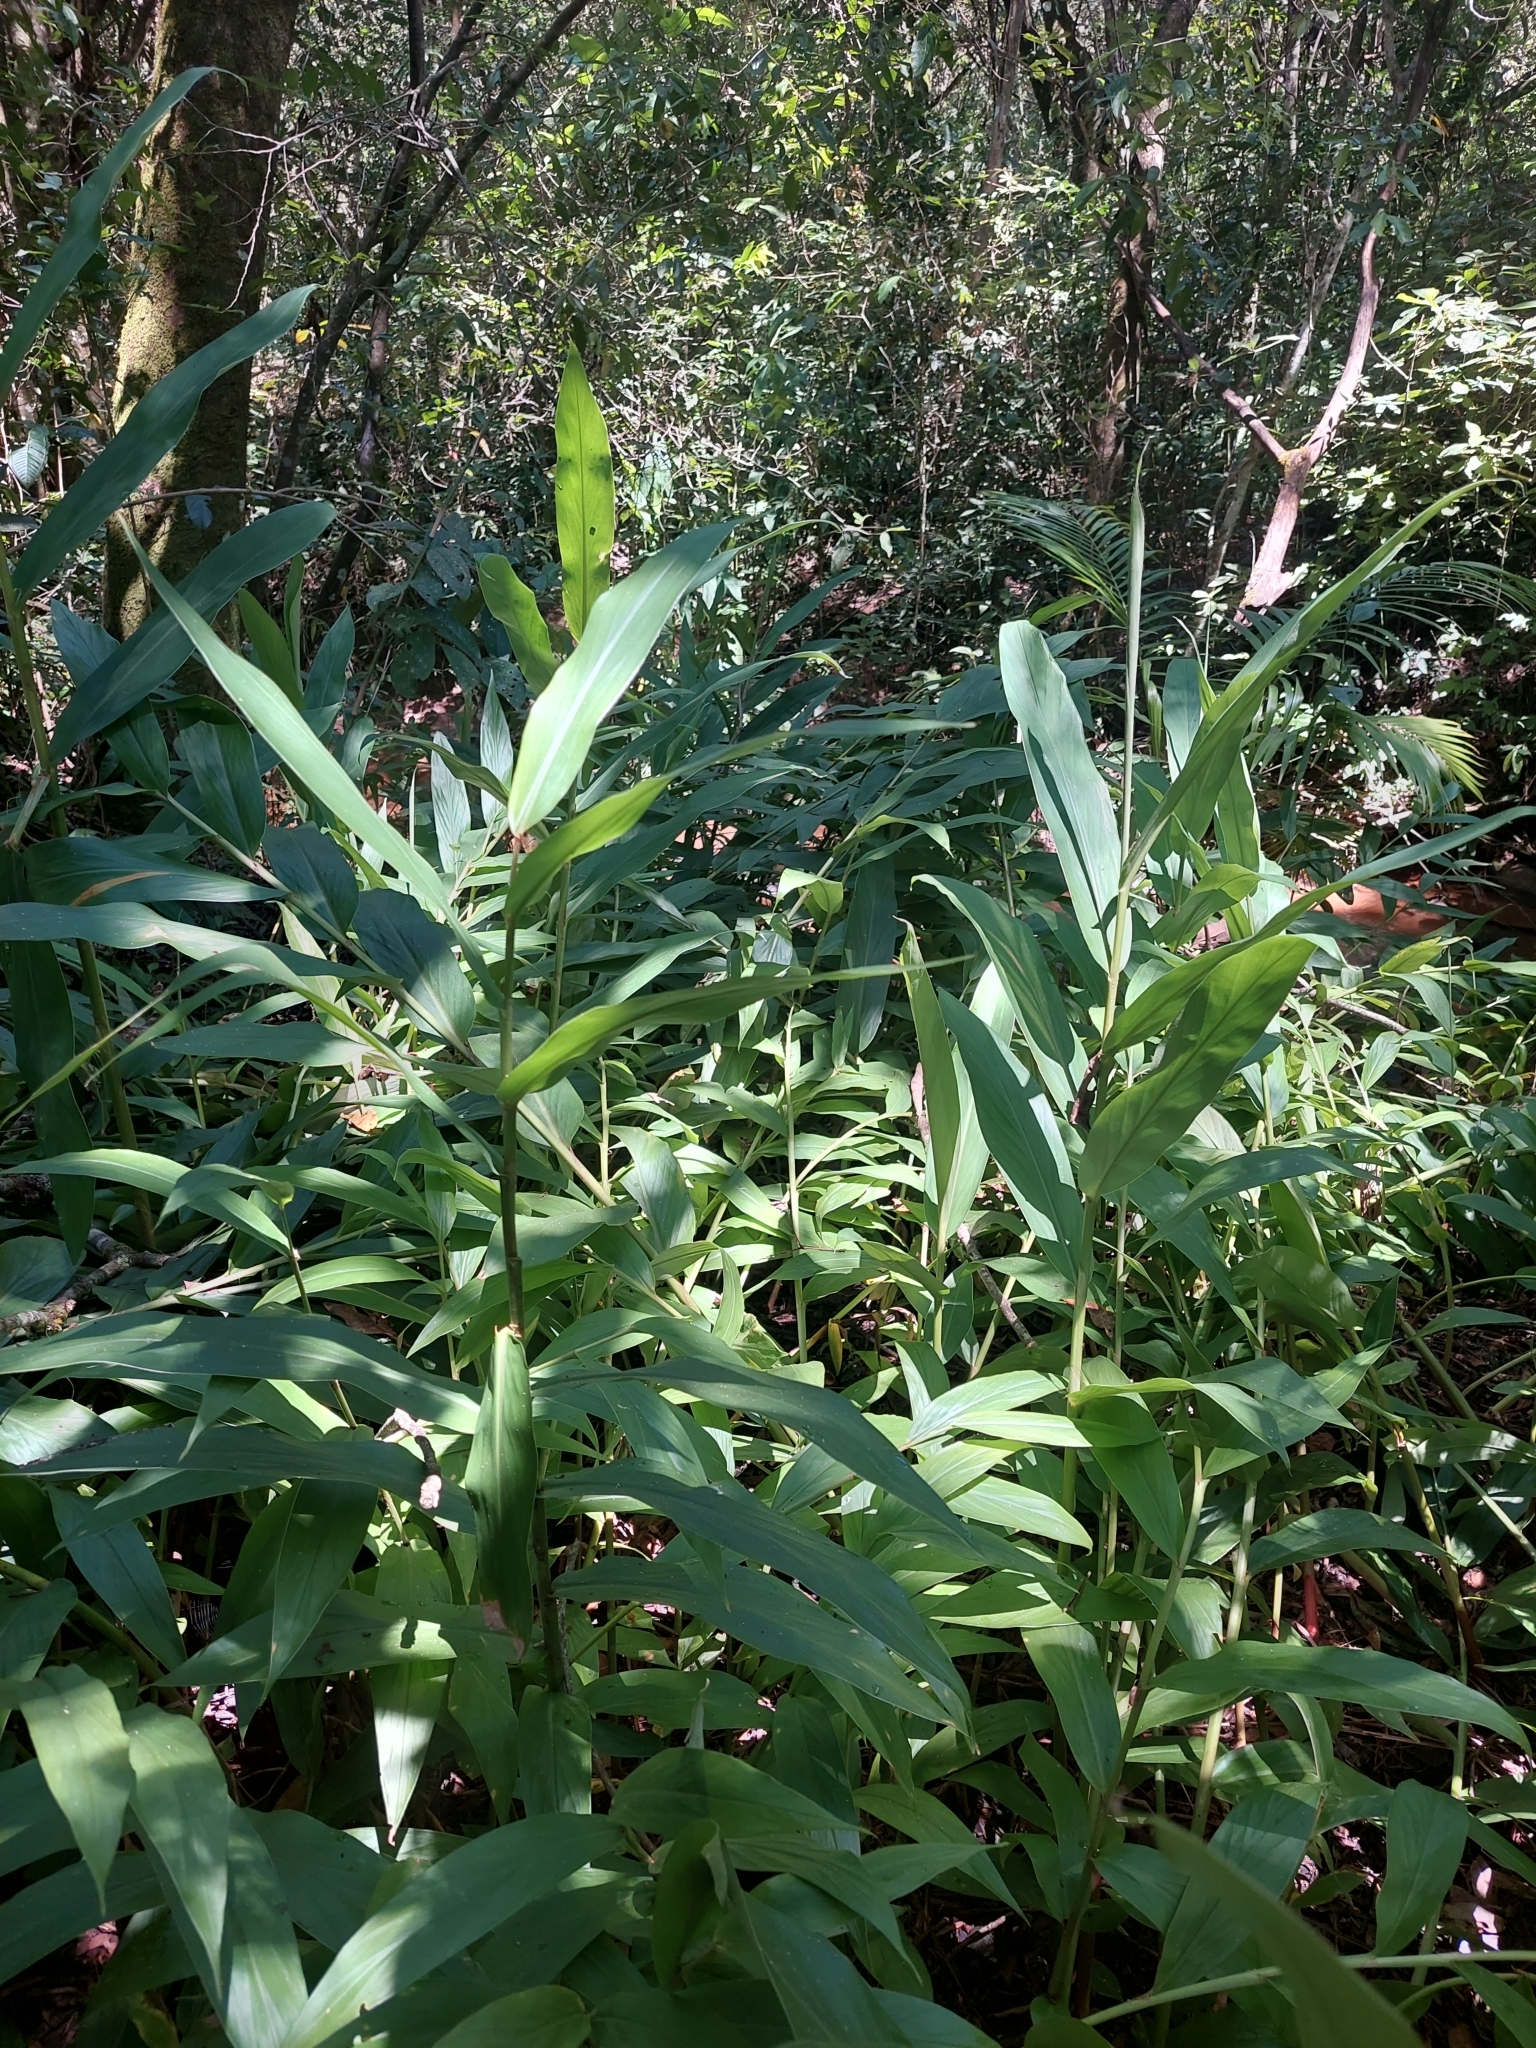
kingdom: Plantae
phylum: Tracheophyta
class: Liliopsida
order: Zingiberales
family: Zingiberaceae
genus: Hedychium
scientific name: Hedychium coronarium
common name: White garland-lily
